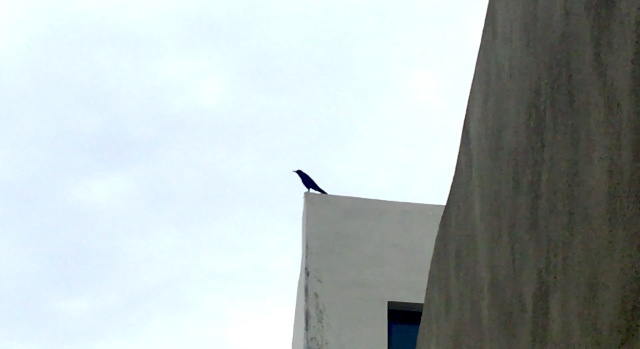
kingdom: Animalia
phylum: Chordata
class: Aves
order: Passeriformes
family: Icteridae
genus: Quiscalus
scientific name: Quiscalus mexicanus
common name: Great-tailed grackle
